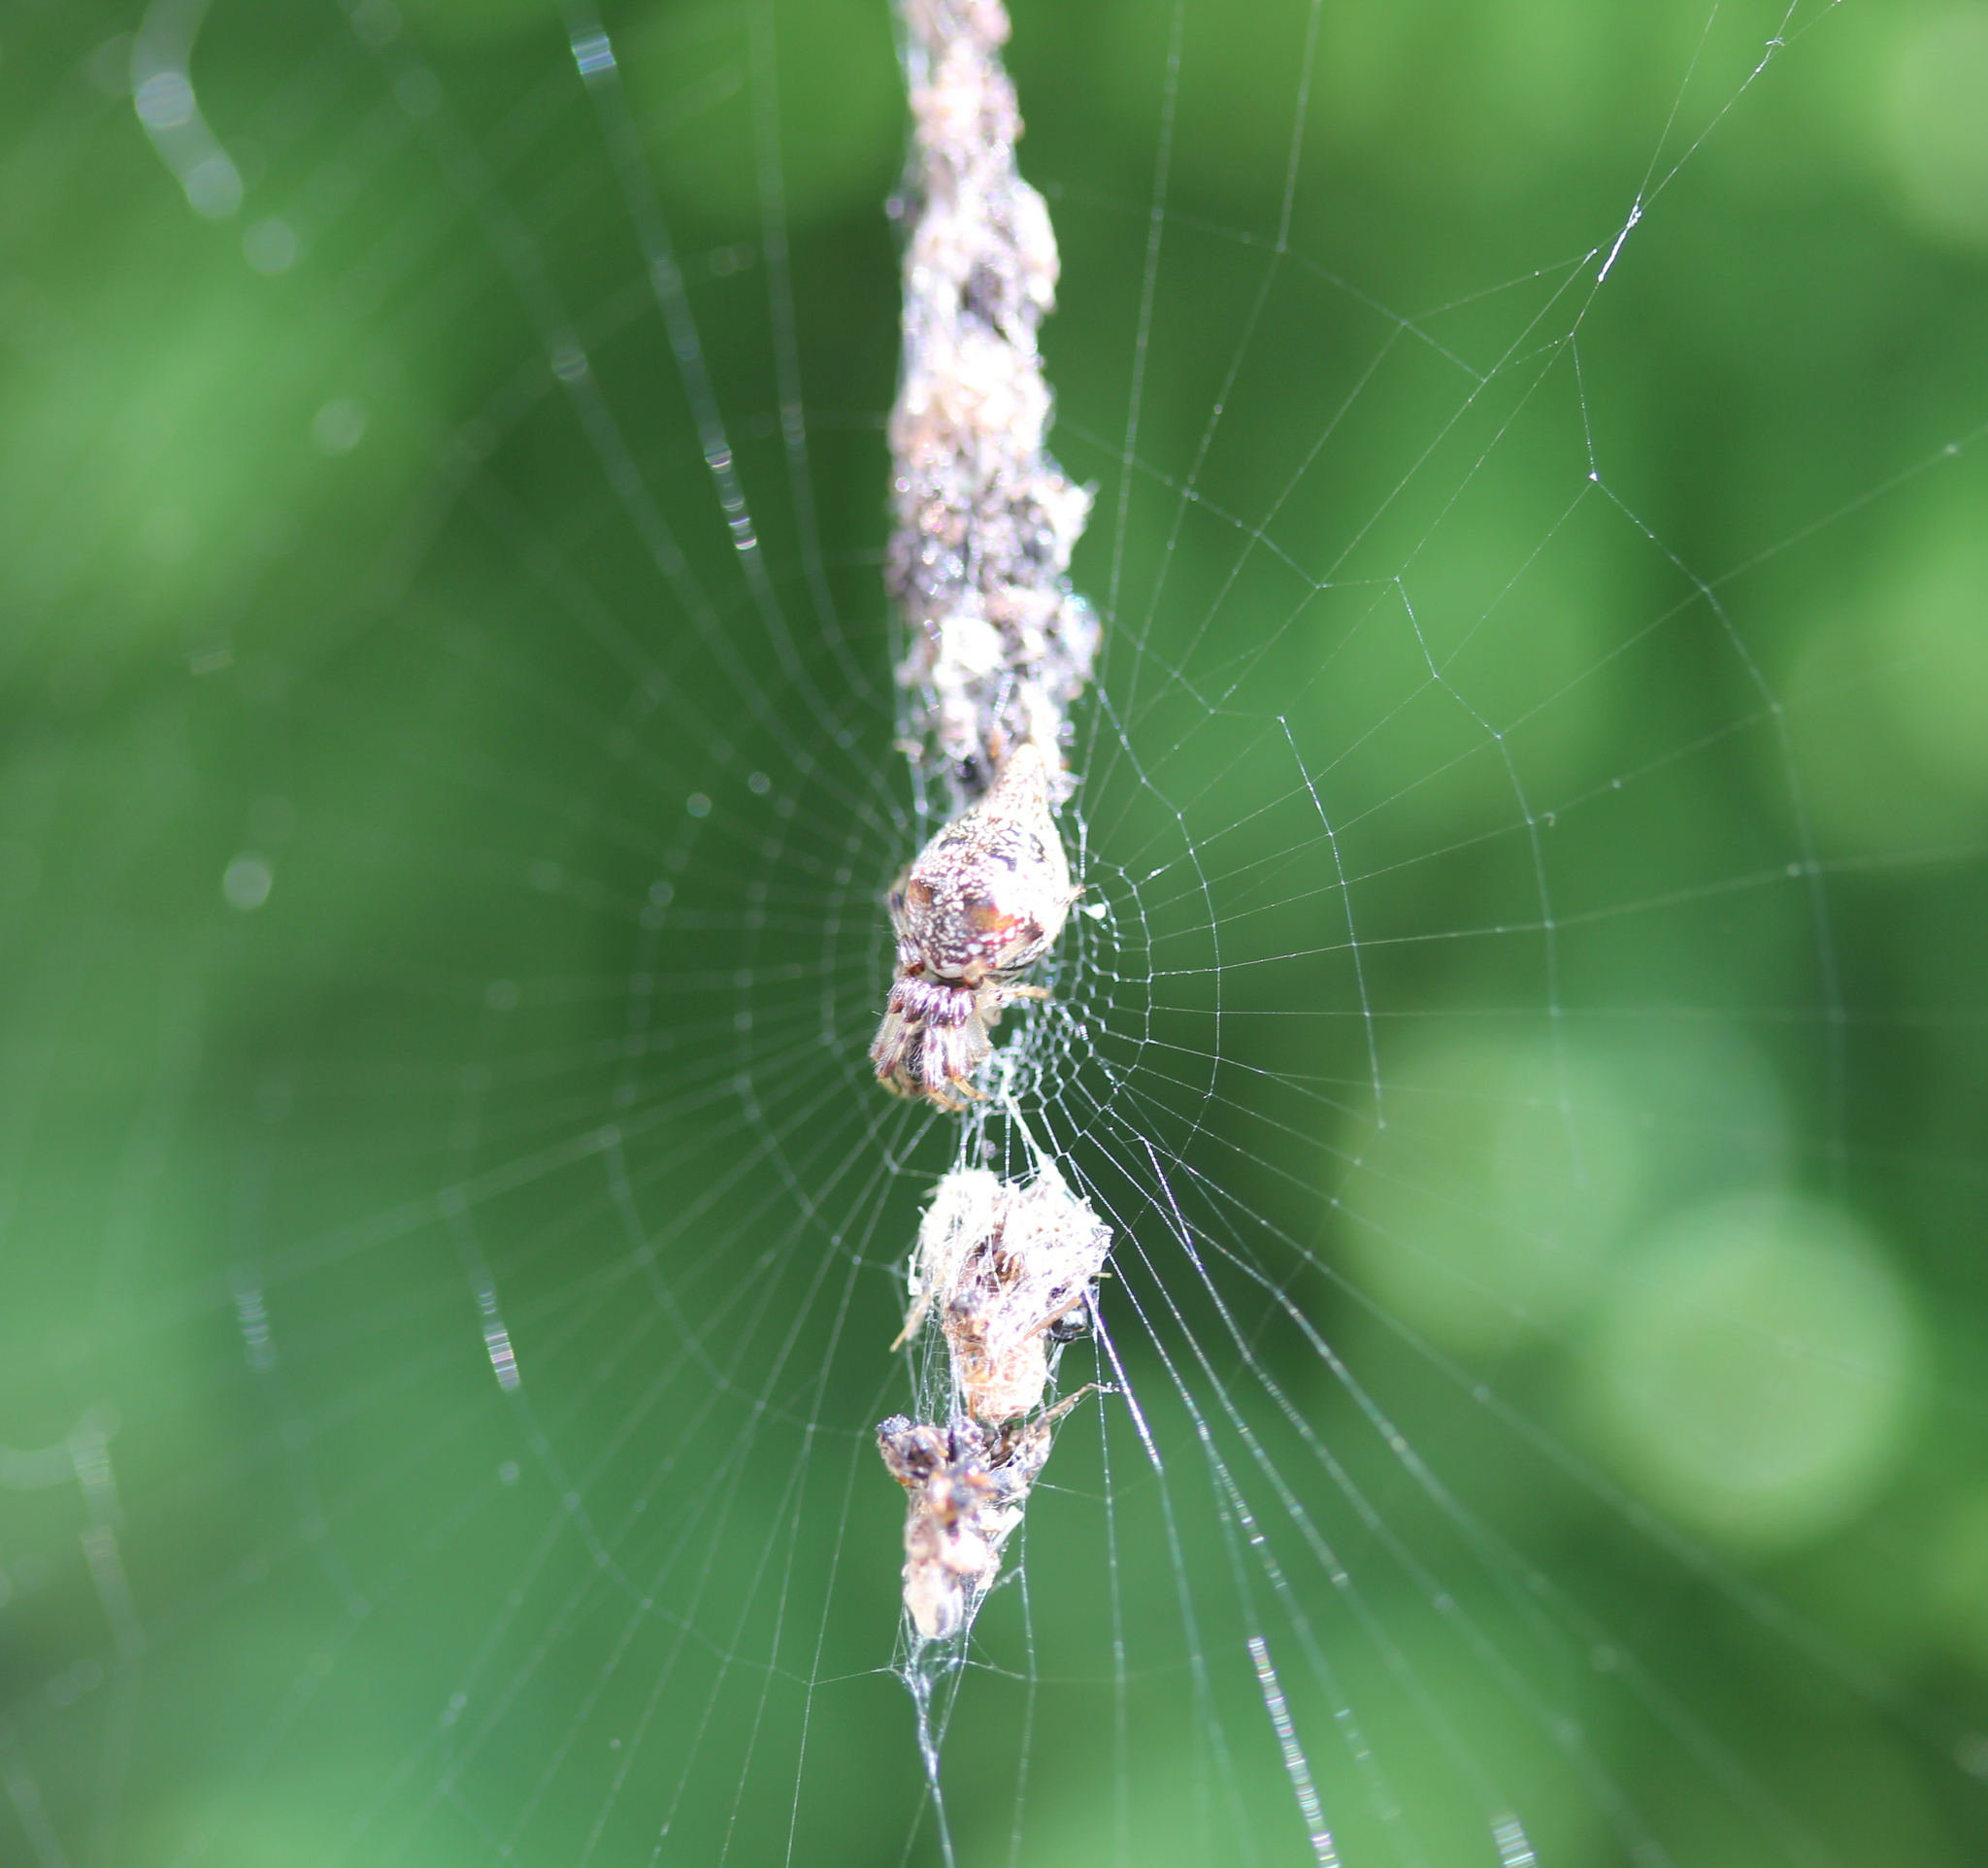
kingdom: Animalia
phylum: Arthropoda
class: Arachnida
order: Araneae
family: Araneidae
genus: Cyclosa
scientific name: Cyclosa turbinata
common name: Orb weavers
